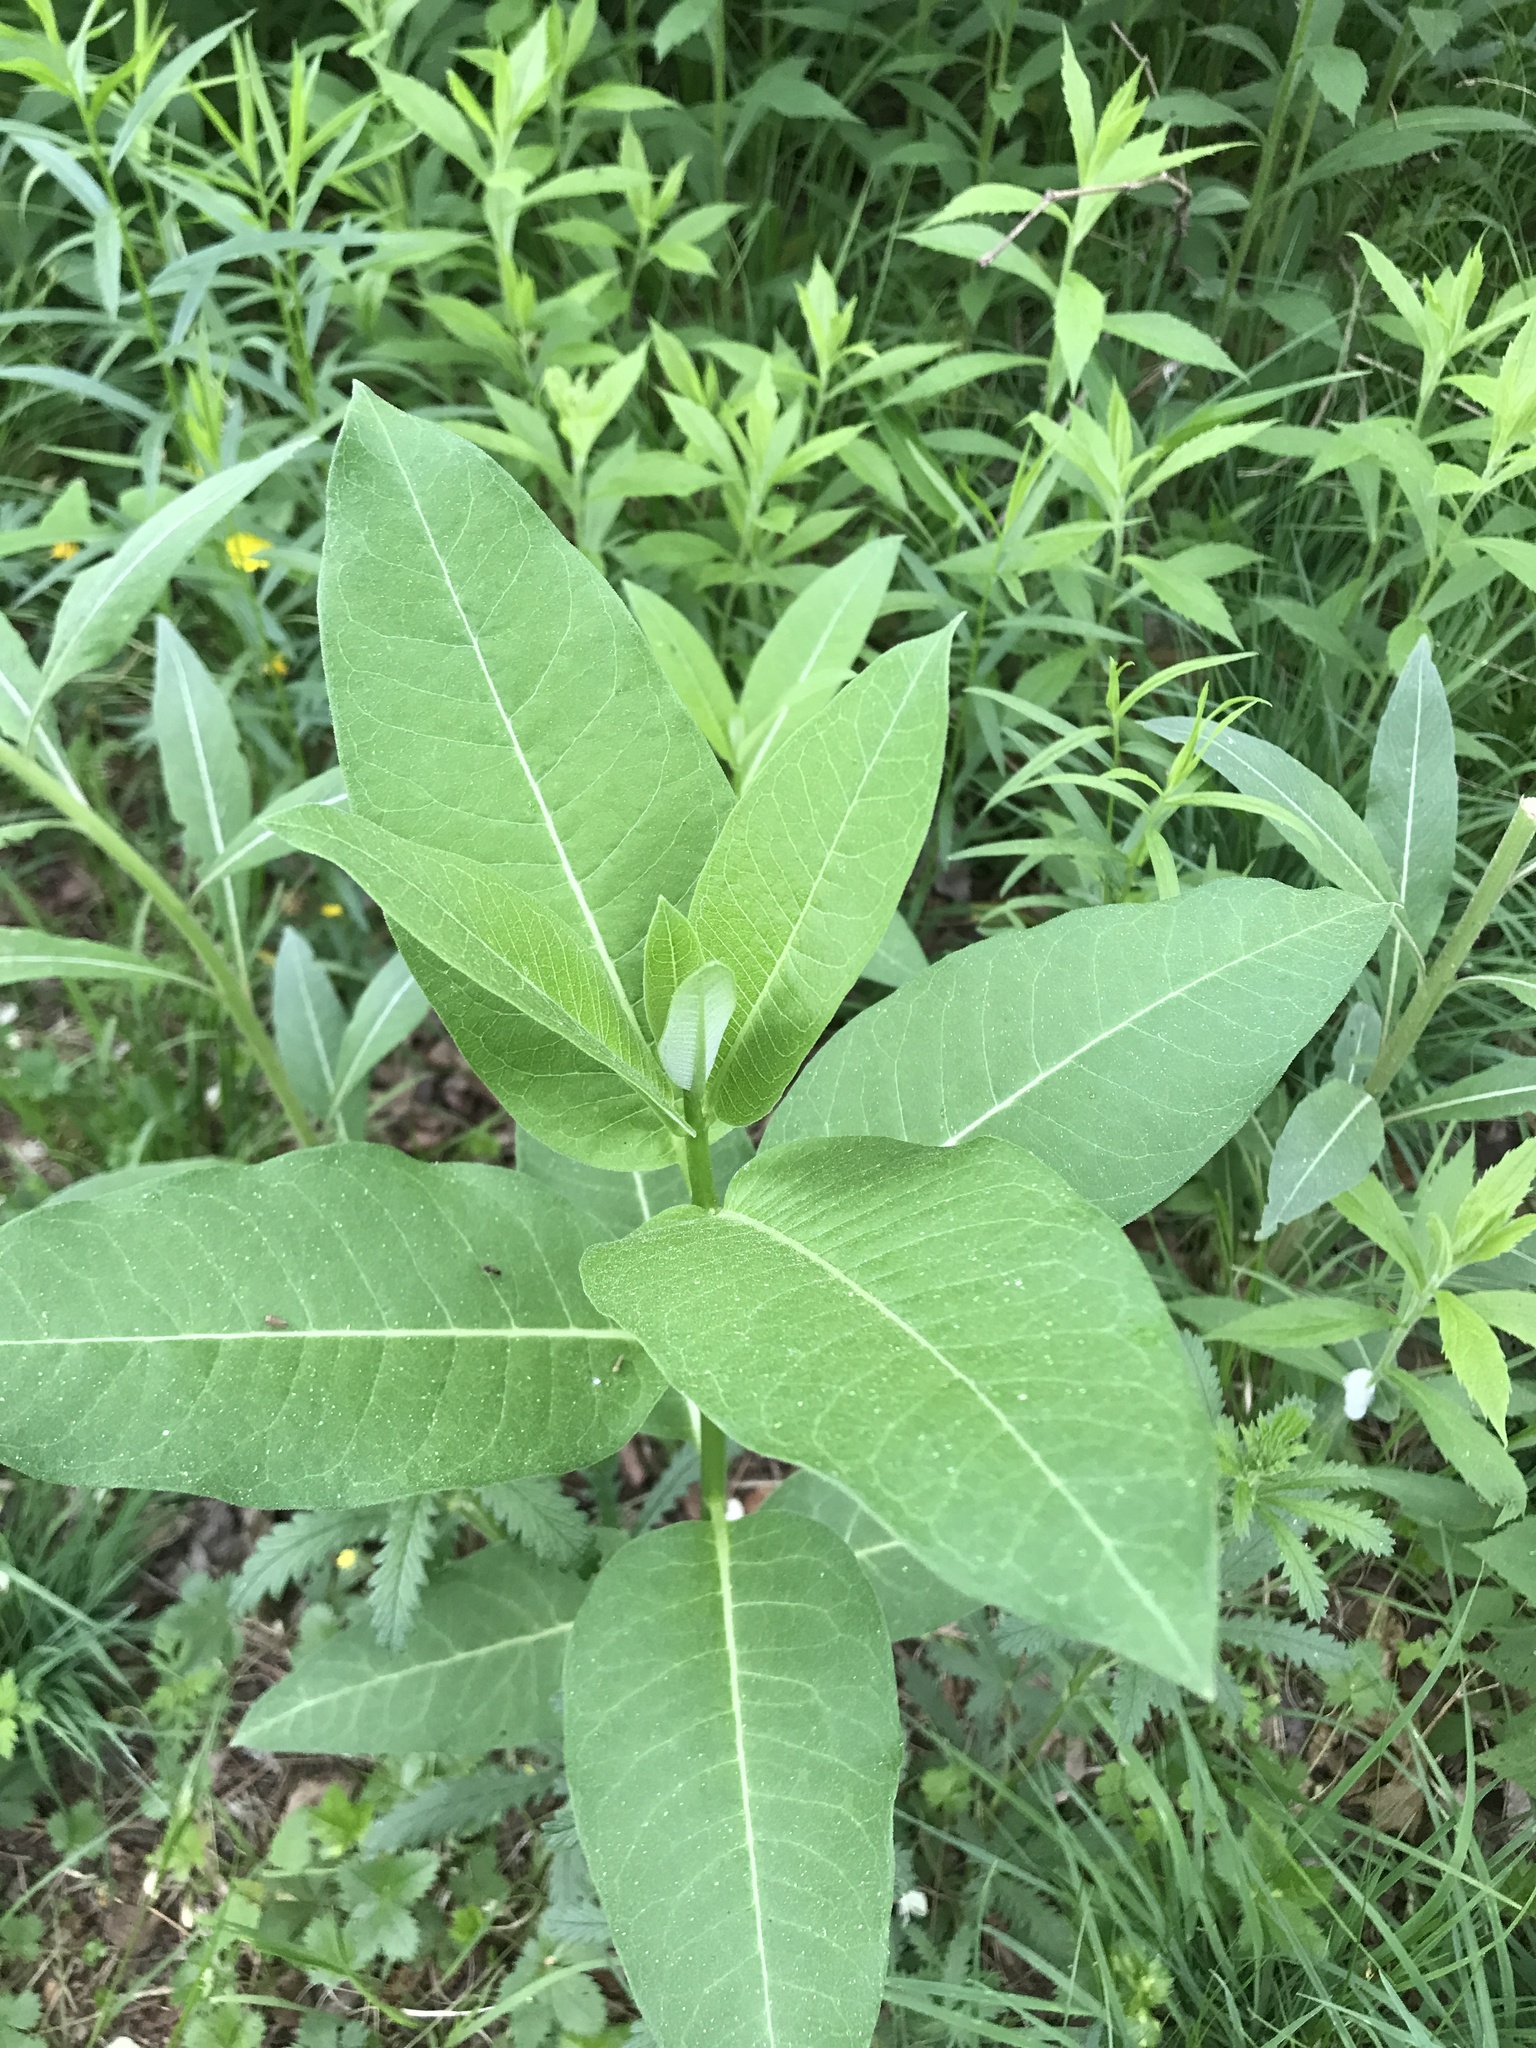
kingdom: Plantae
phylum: Tracheophyta
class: Magnoliopsida
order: Gentianales
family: Apocynaceae
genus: Asclepias
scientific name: Asclepias syriaca
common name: Common milkweed
